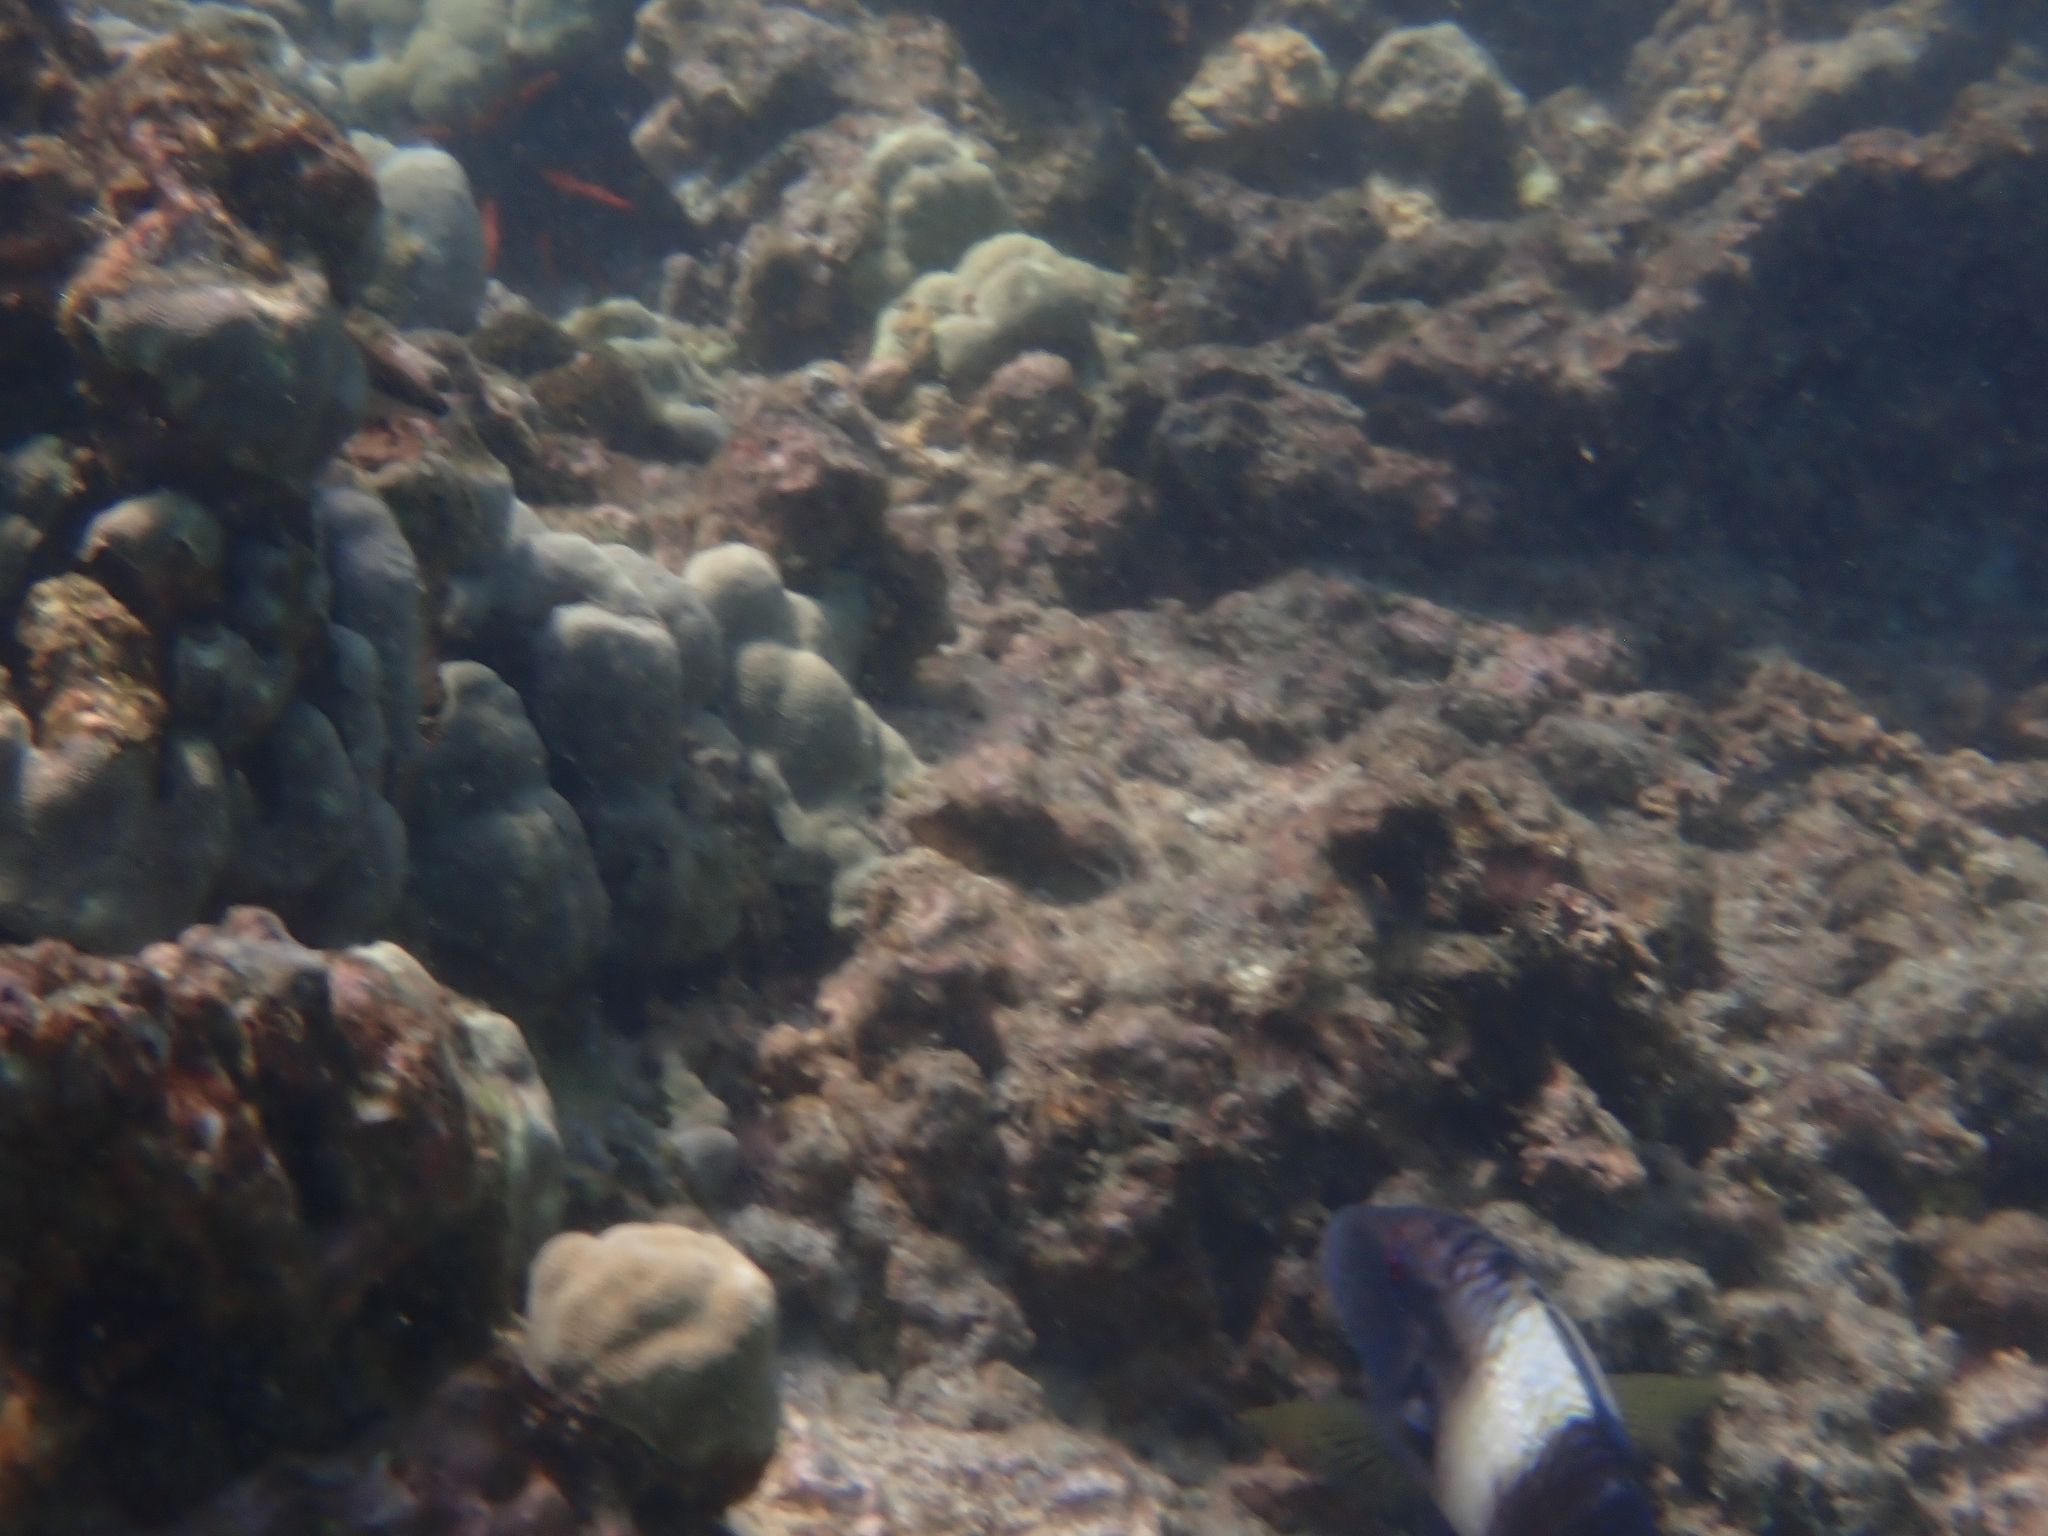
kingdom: Animalia
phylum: Chordata
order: Perciformes
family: Mullidae
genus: Parupeneus
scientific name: Parupeneus multifasciatus
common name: Manybar goatfish
